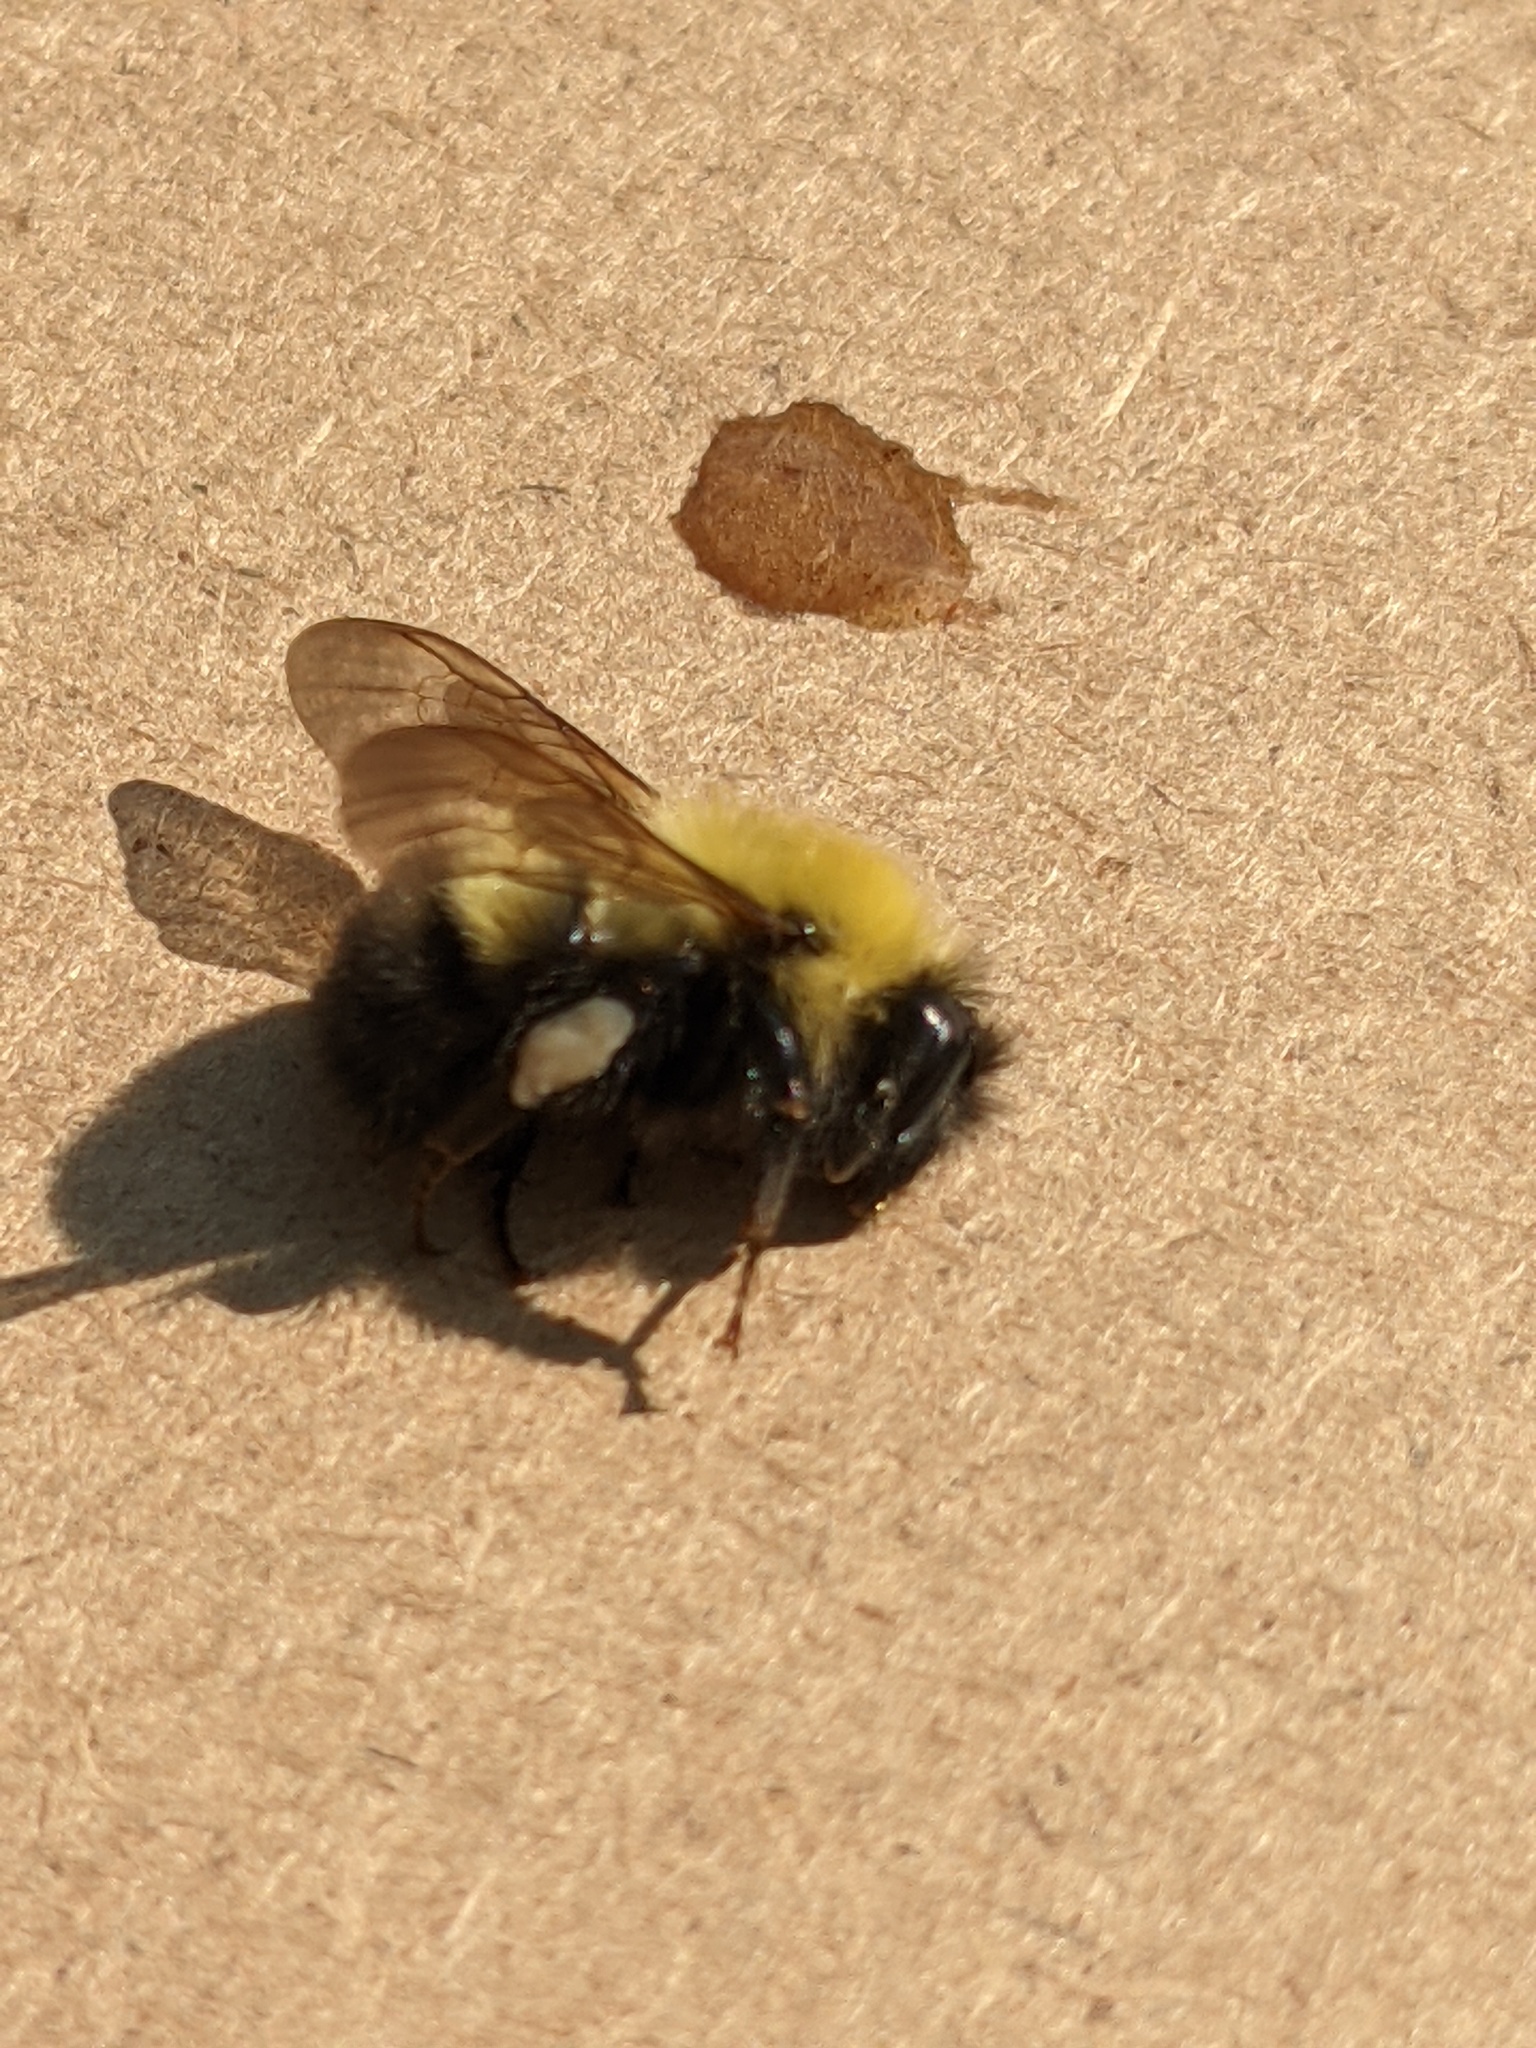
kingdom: Animalia
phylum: Arthropoda
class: Insecta
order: Hymenoptera
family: Apidae
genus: Bombus
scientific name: Bombus perplexus
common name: Confusing bumble bee
